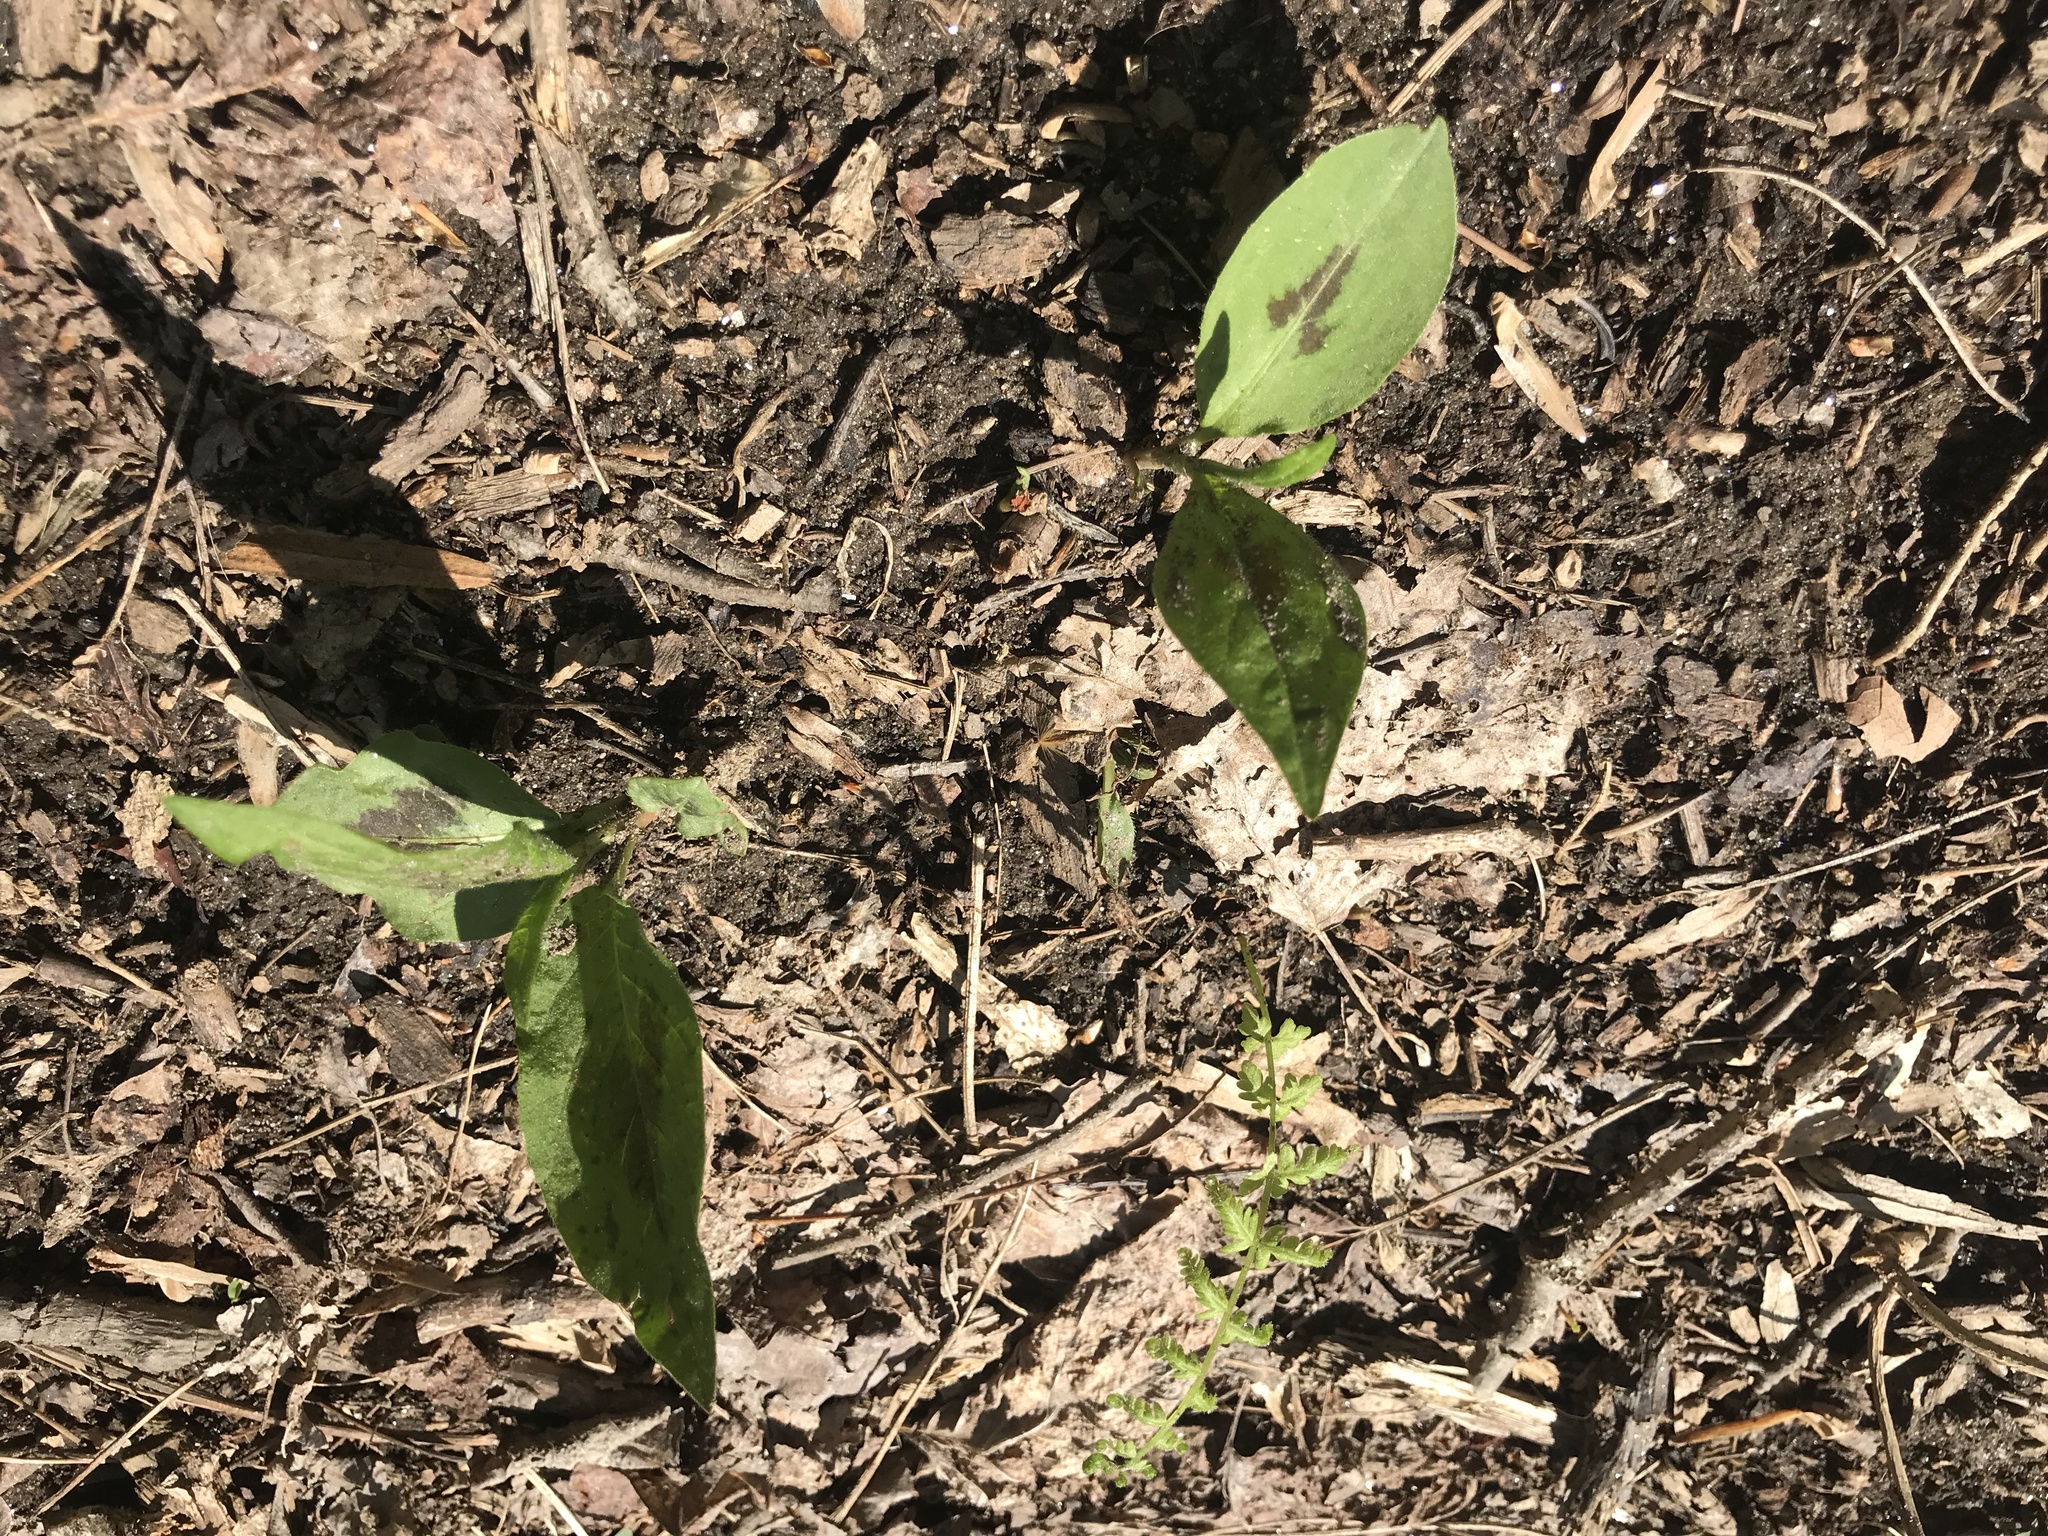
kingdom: Plantae
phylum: Tracheophyta
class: Magnoliopsida
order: Caryophyllales
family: Polygonaceae
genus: Persicaria
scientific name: Persicaria virginiana
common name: Jumpseed
